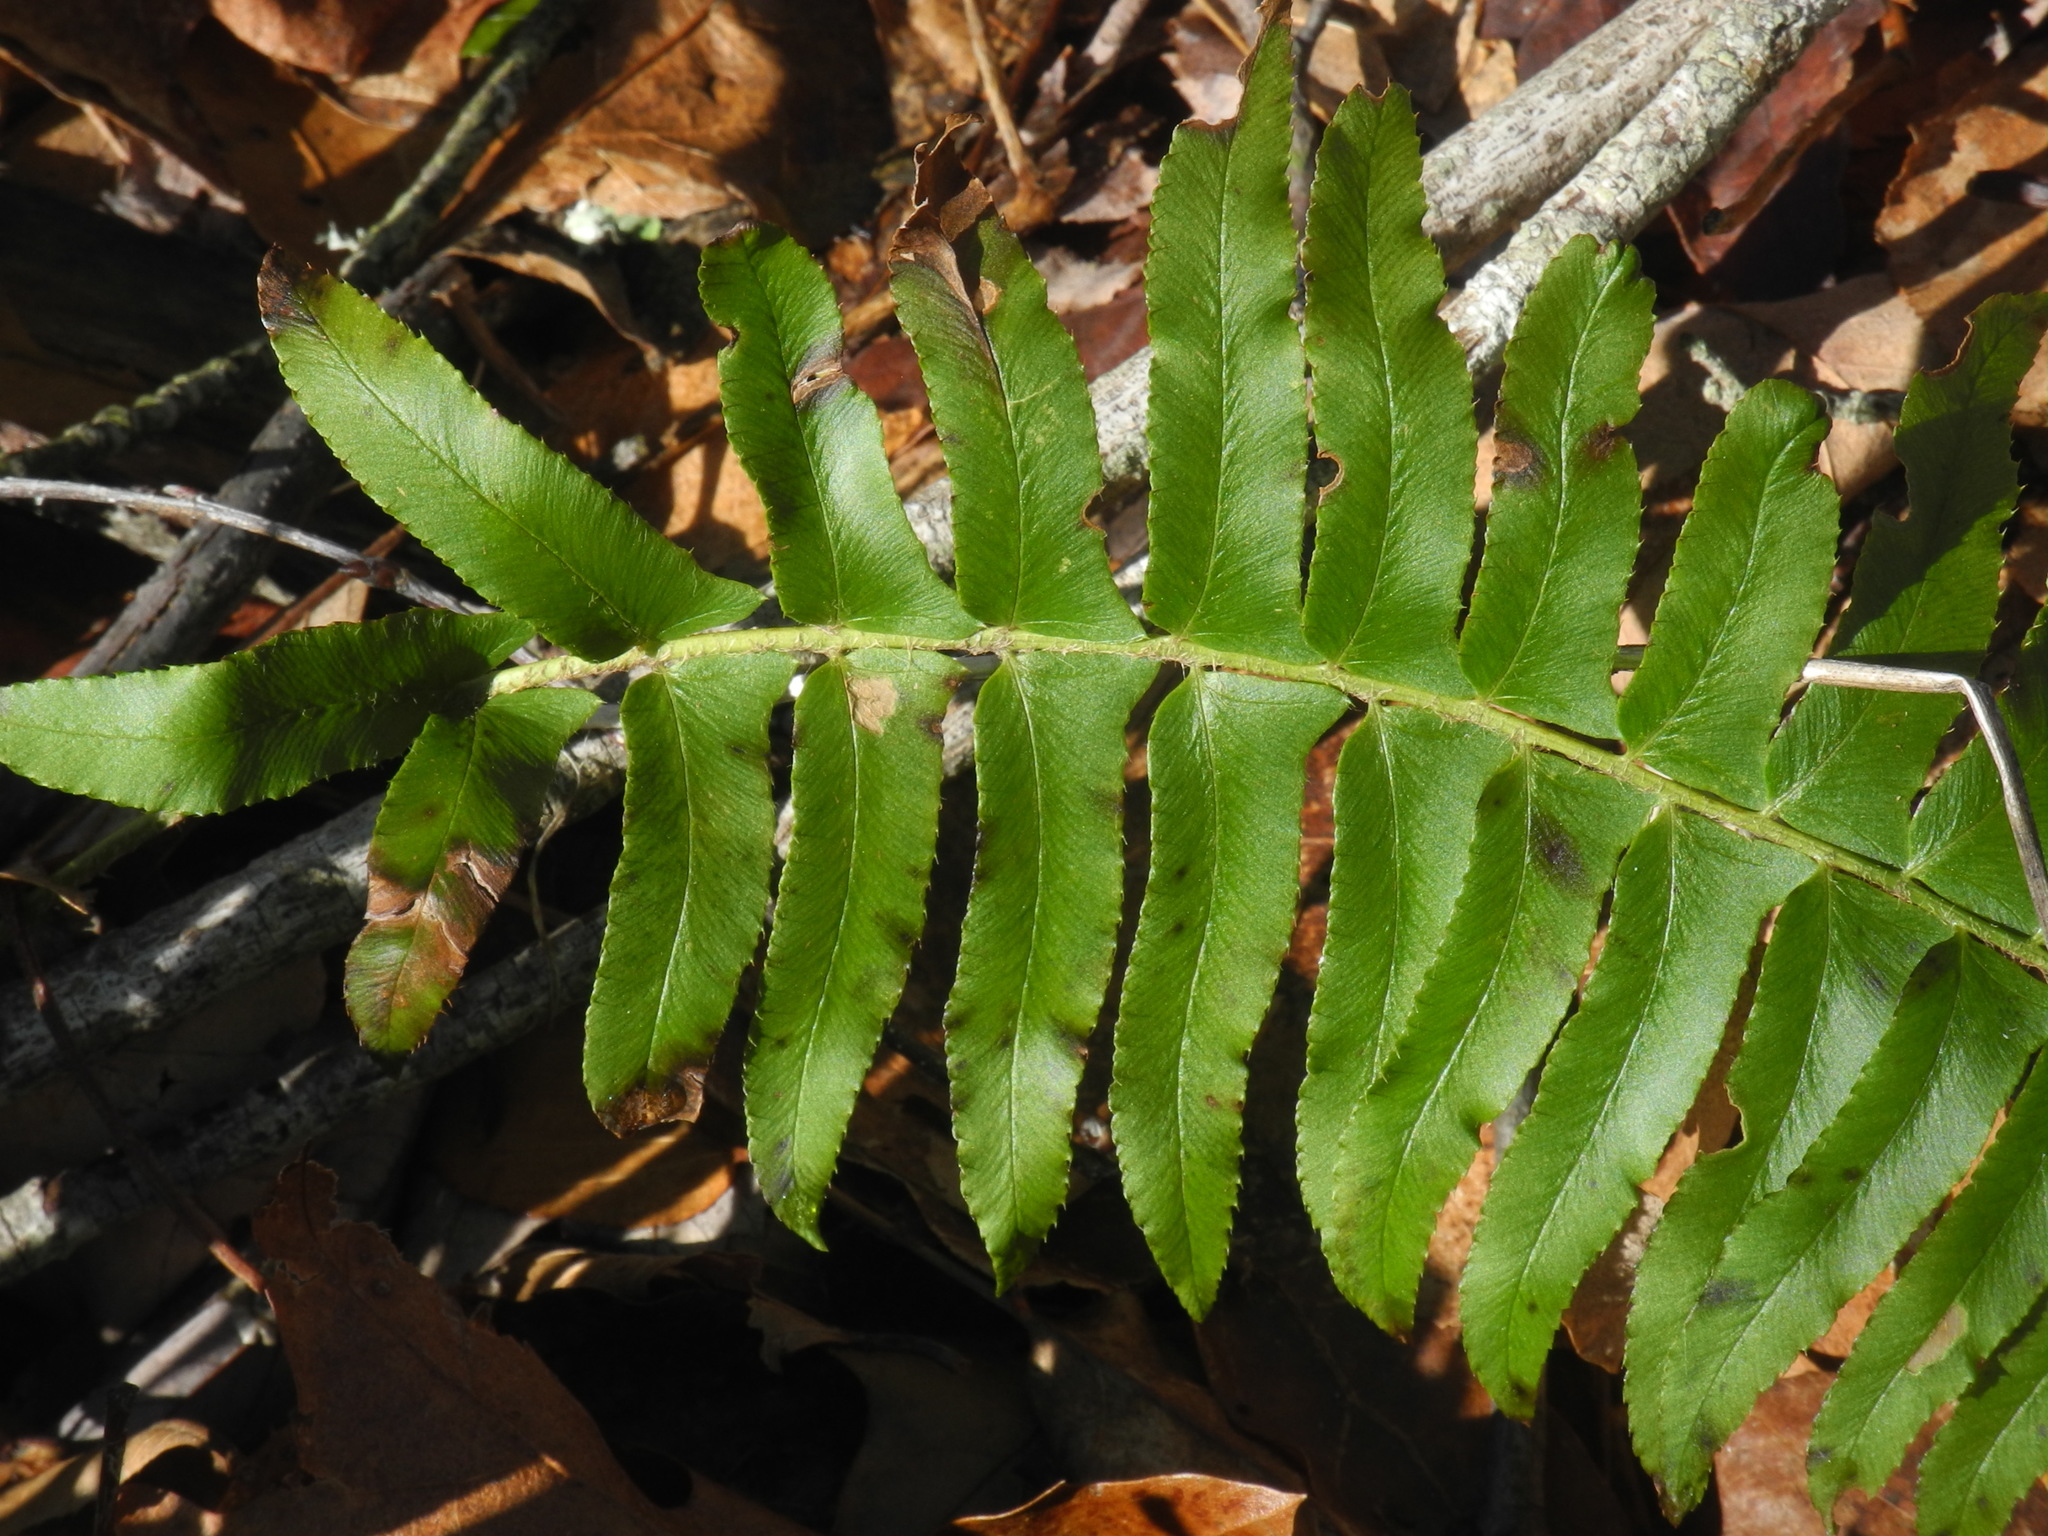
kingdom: Plantae
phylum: Tracheophyta
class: Polypodiopsida
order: Polypodiales
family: Dryopteridaceae
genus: Polystichum
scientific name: Polystichum acrostichoides
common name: Christmas fern
